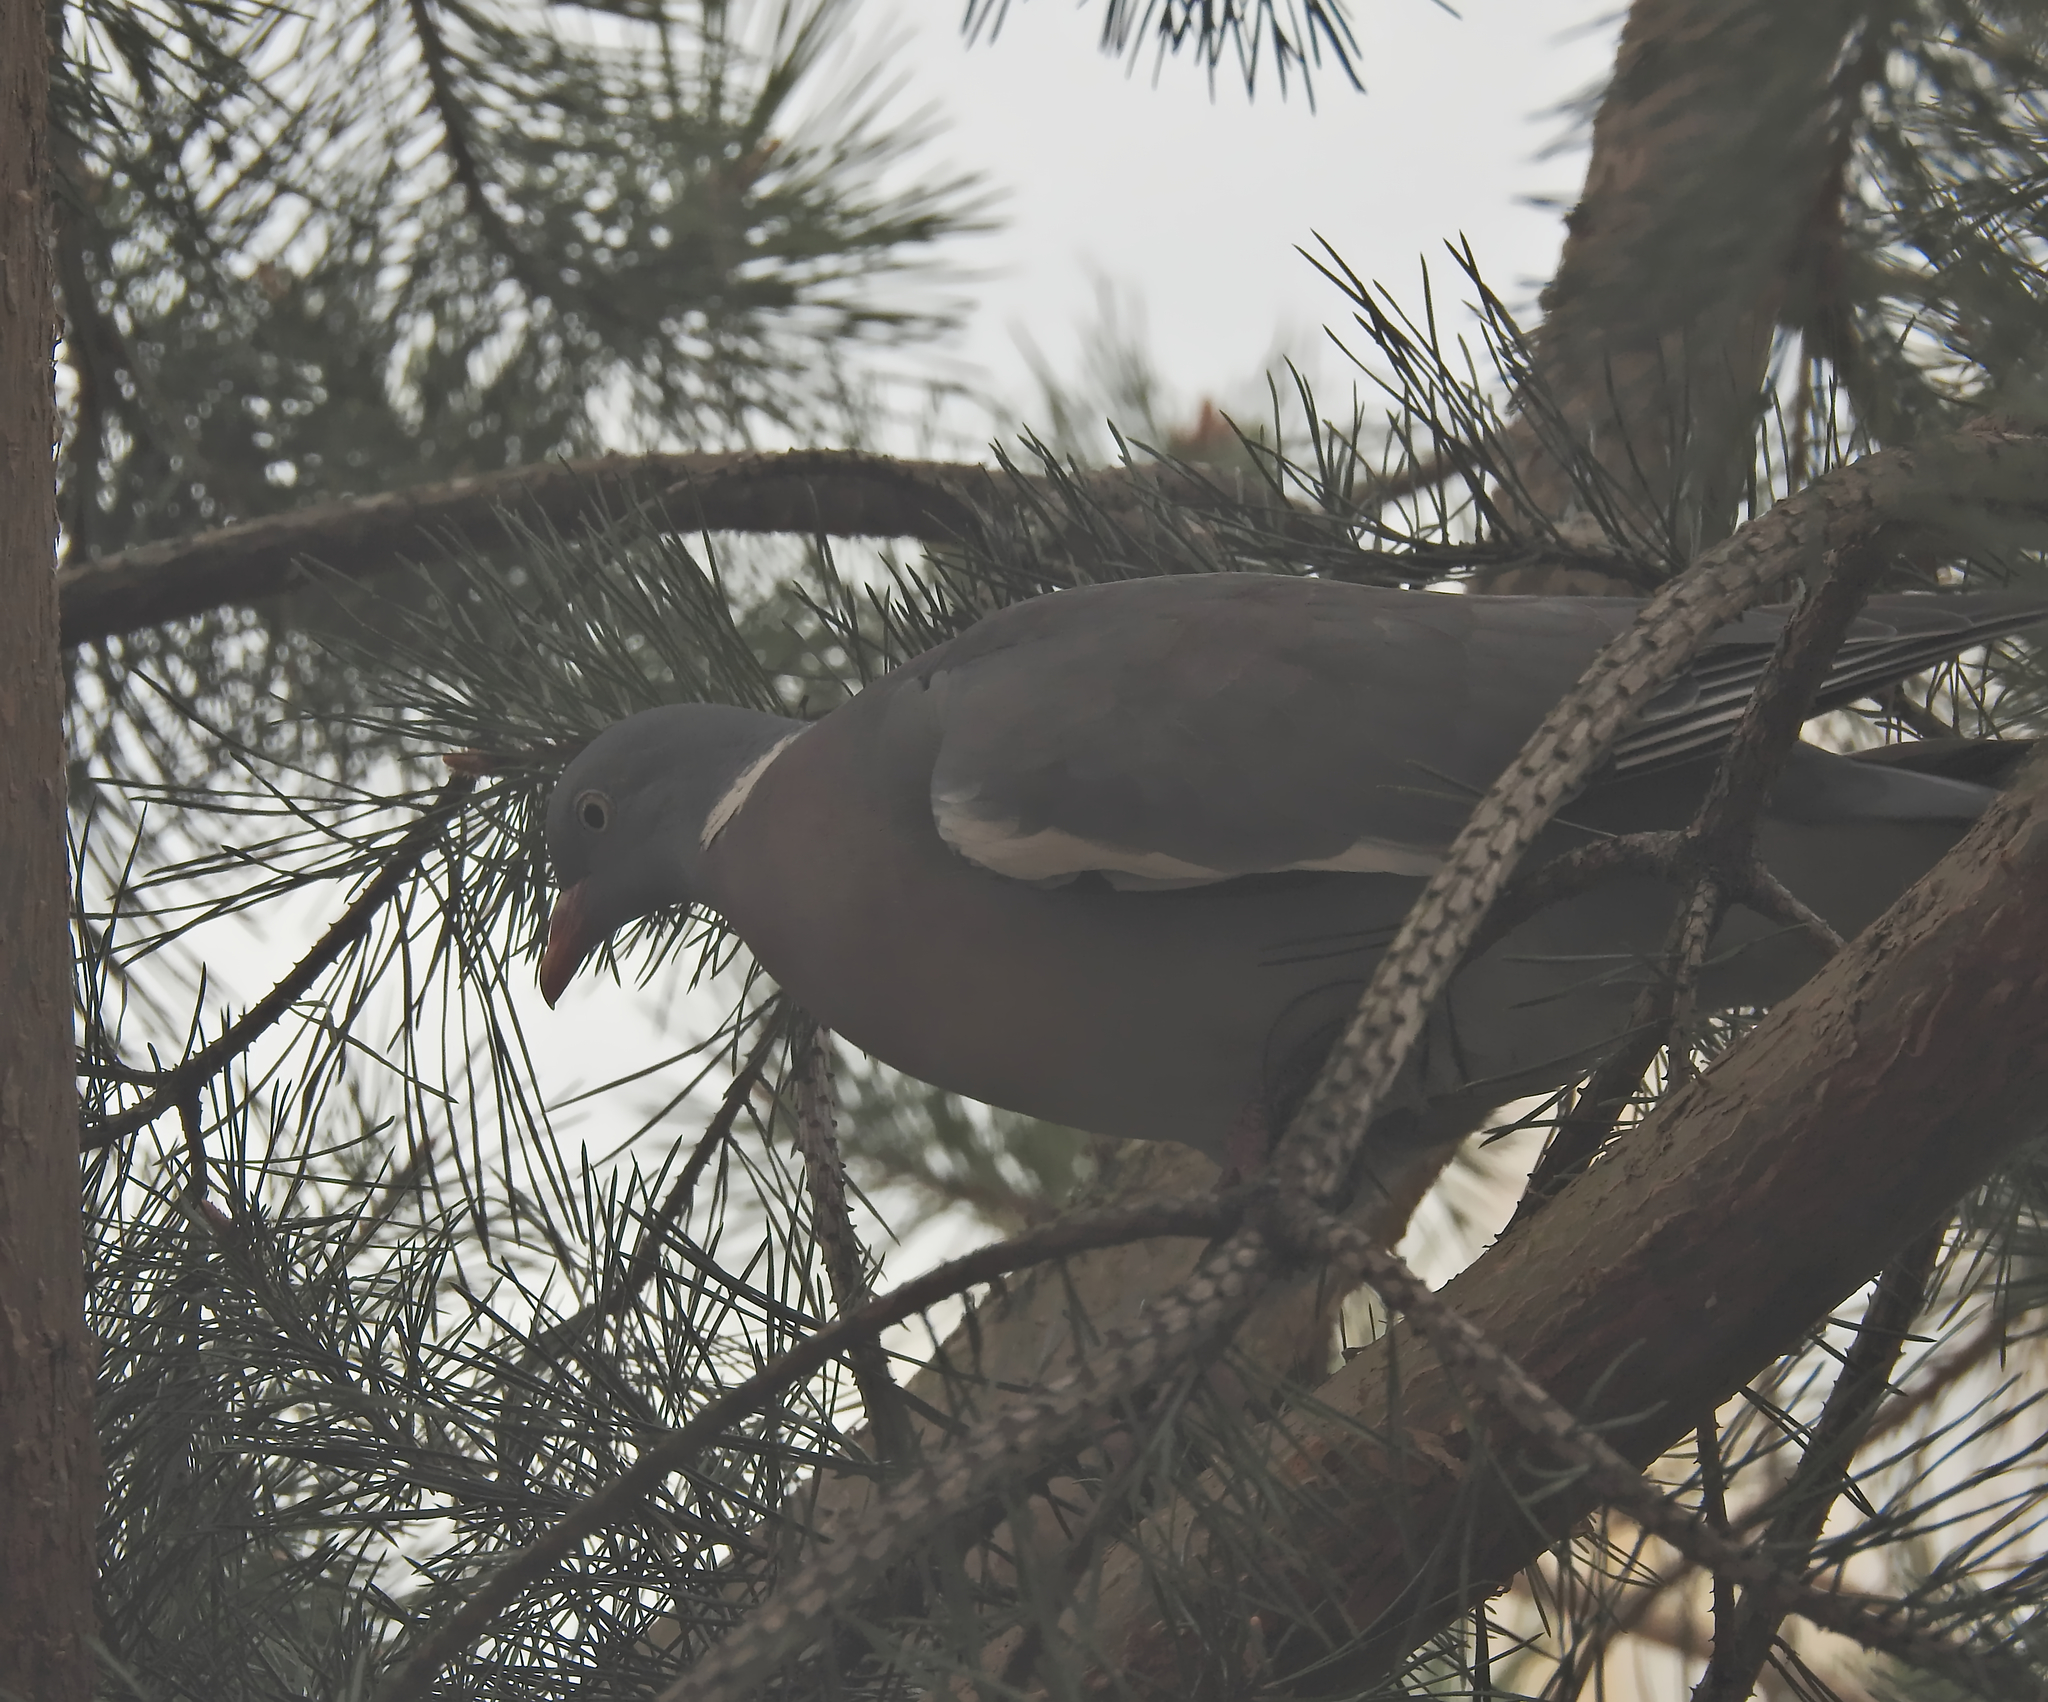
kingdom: Animalia
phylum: Chordata
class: Aves
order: Columbiformes
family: Columbidae
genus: Columba
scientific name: Columba palumbus
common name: Common wood pigeon
